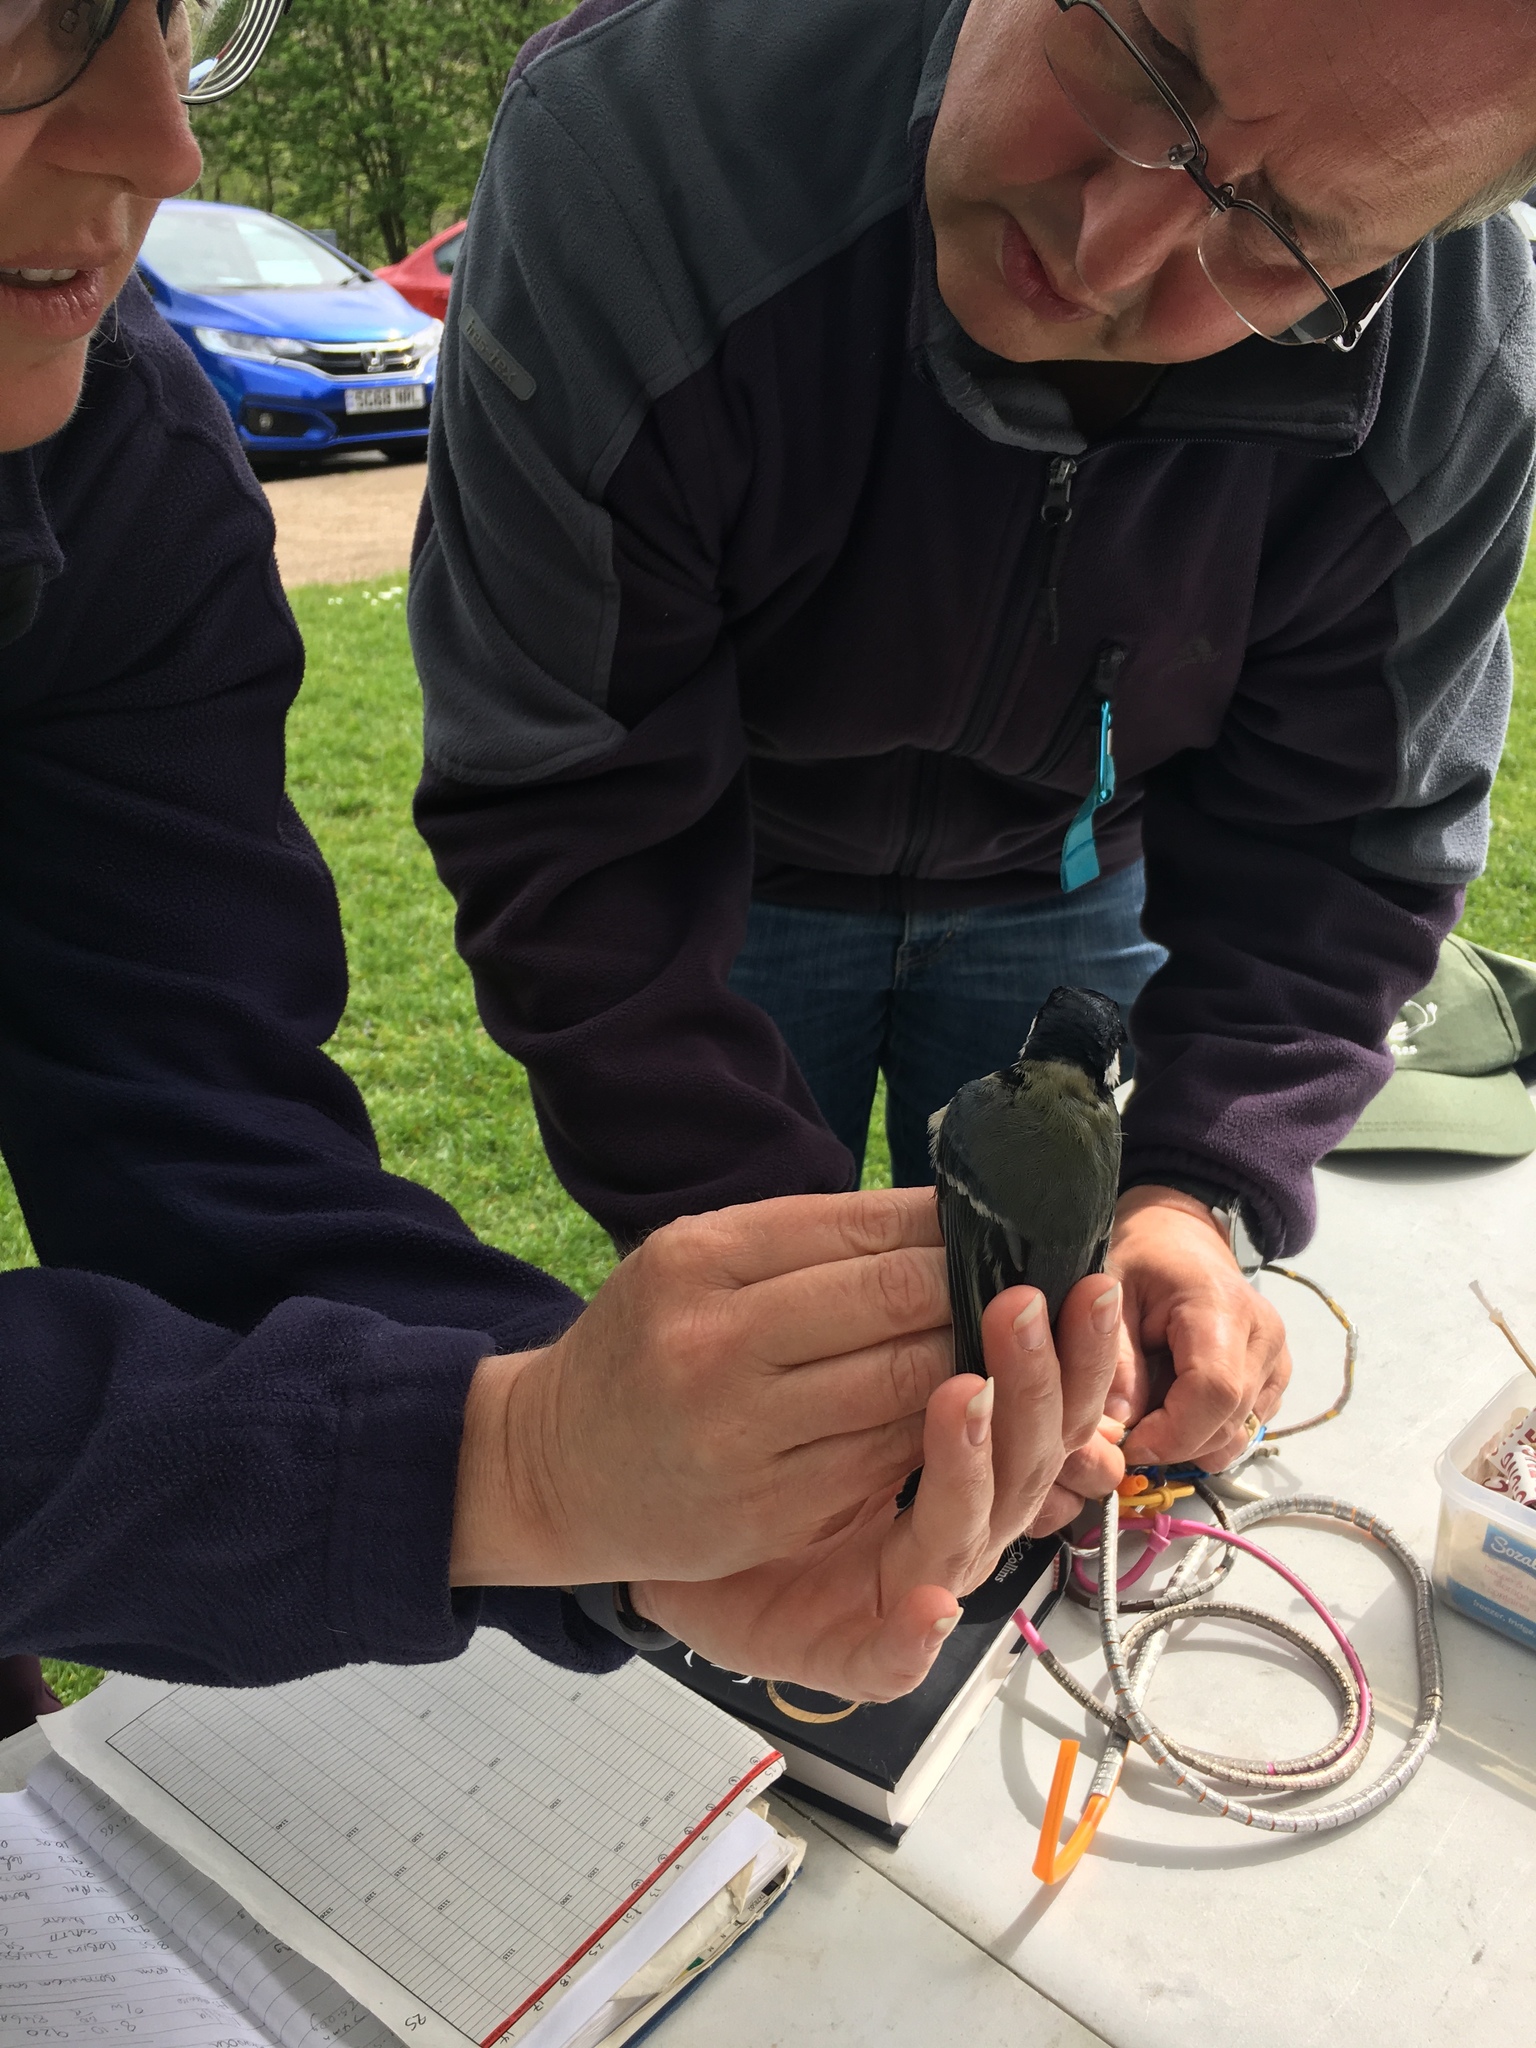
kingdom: Animalia
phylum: Chordata
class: Aves
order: Passeriformes
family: Paridae
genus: Parus
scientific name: Parus major
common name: Great tit
